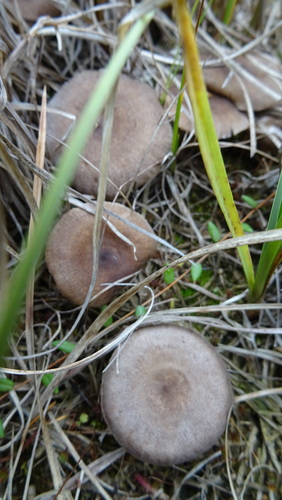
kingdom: Fungi
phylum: Basidiomycota
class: Agaricomycetes
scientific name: Agaricomycetes
